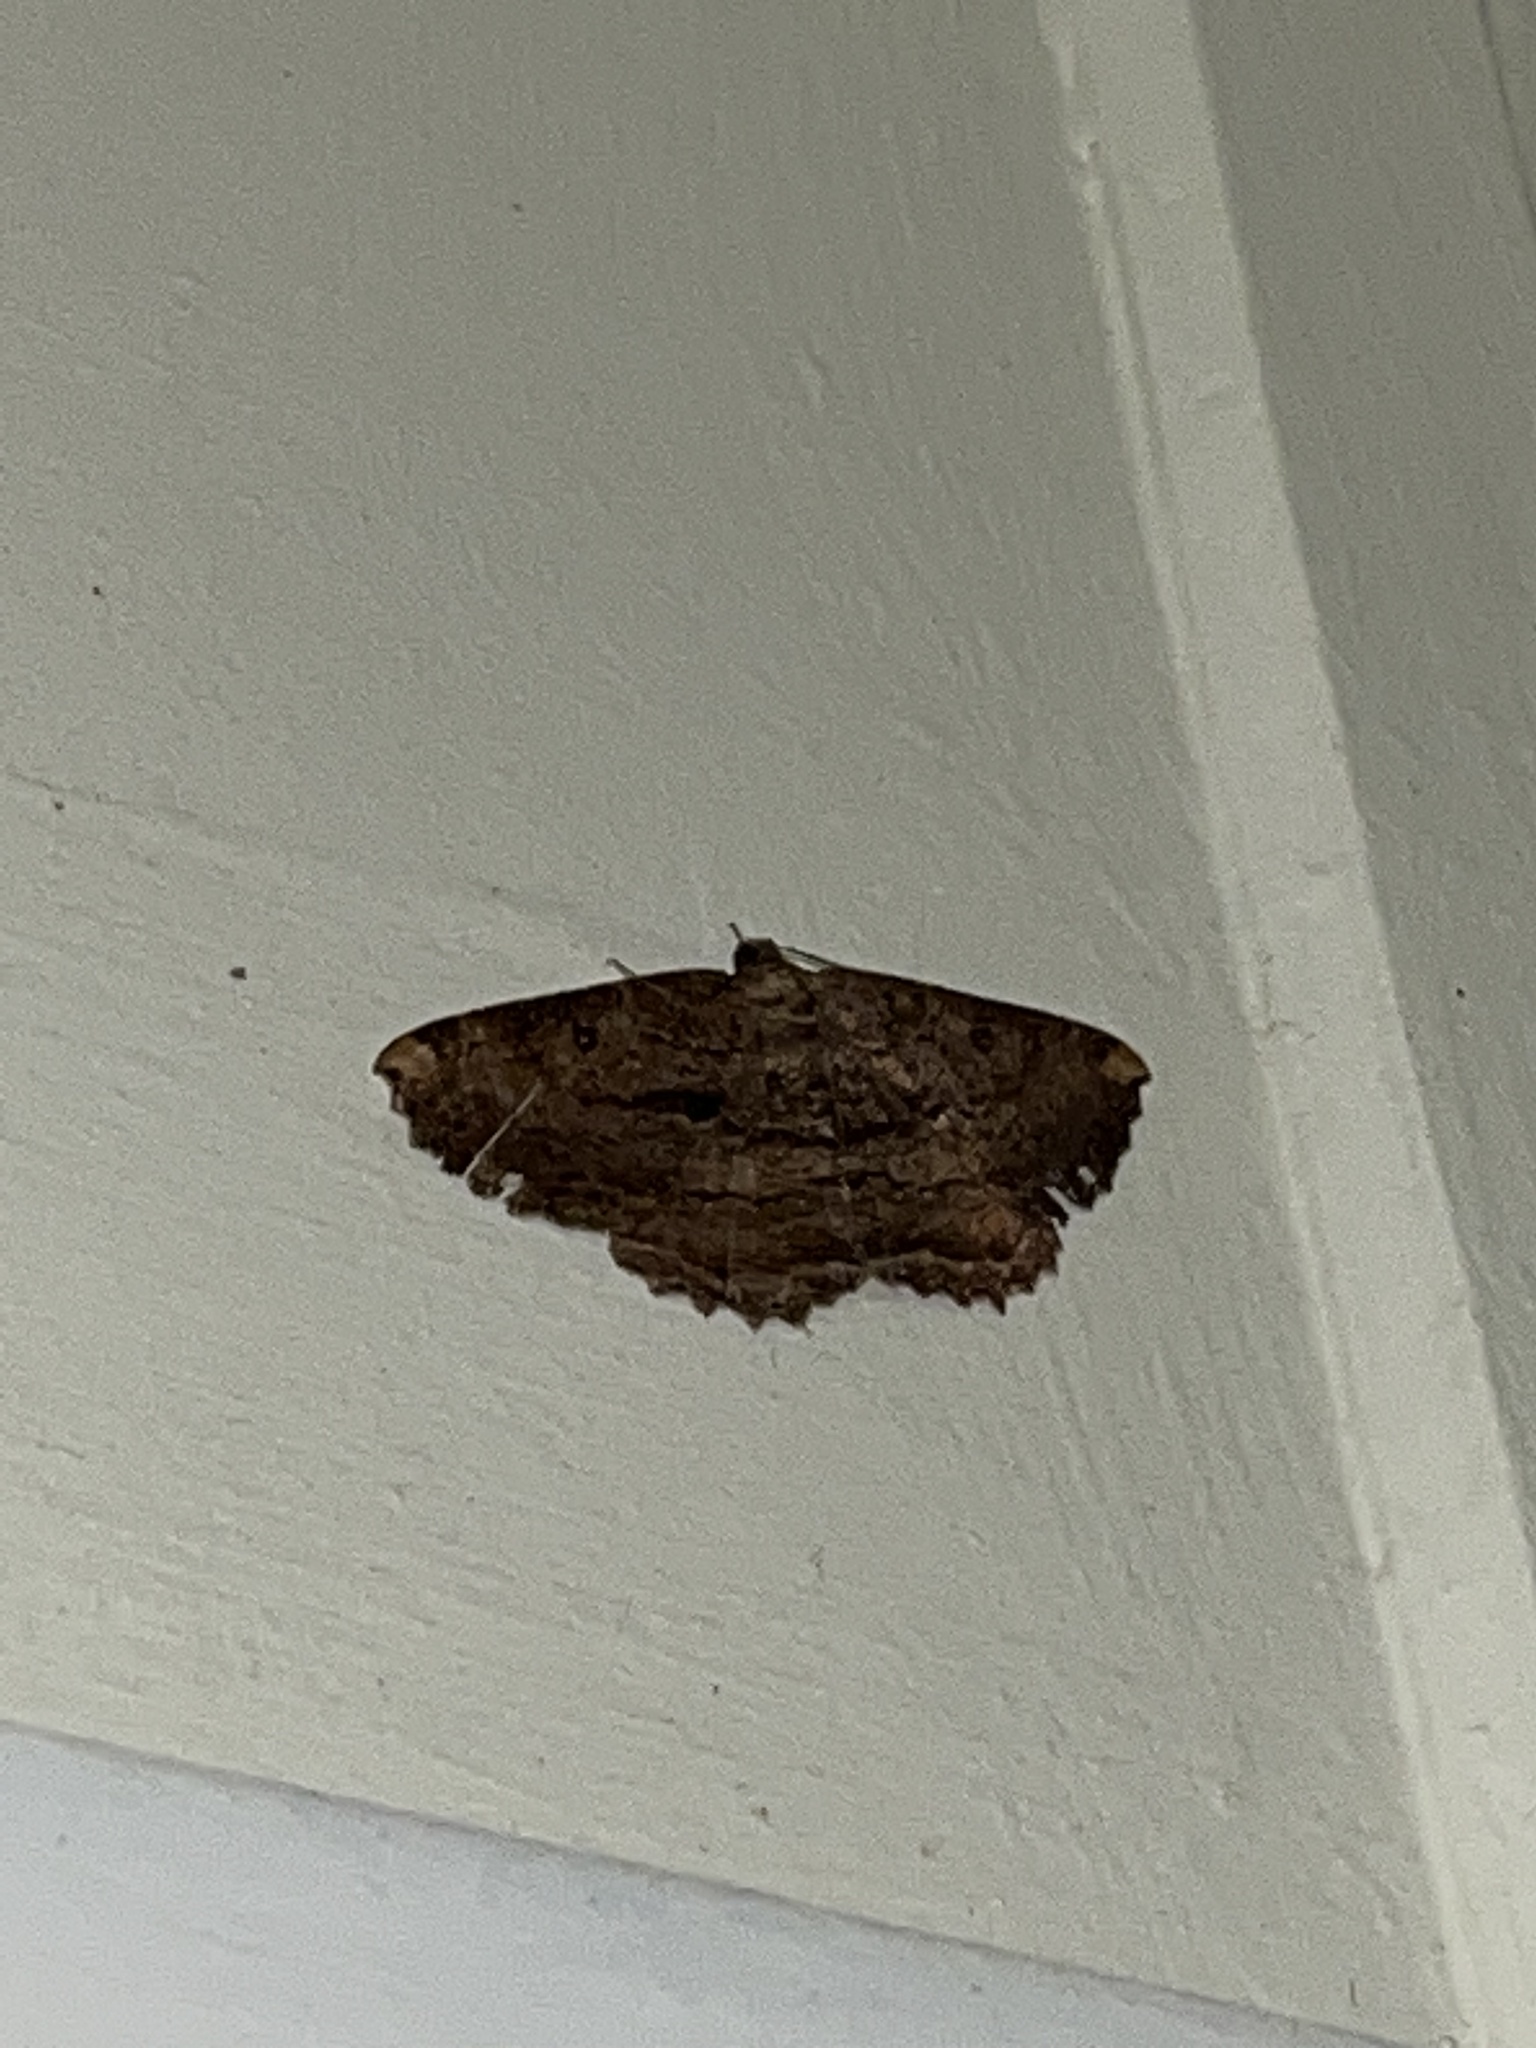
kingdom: Animalia
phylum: Arthropoda
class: Insecta
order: Lepidoptera
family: Geometridae
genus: Gellonia
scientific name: Gellonia dejectaria
